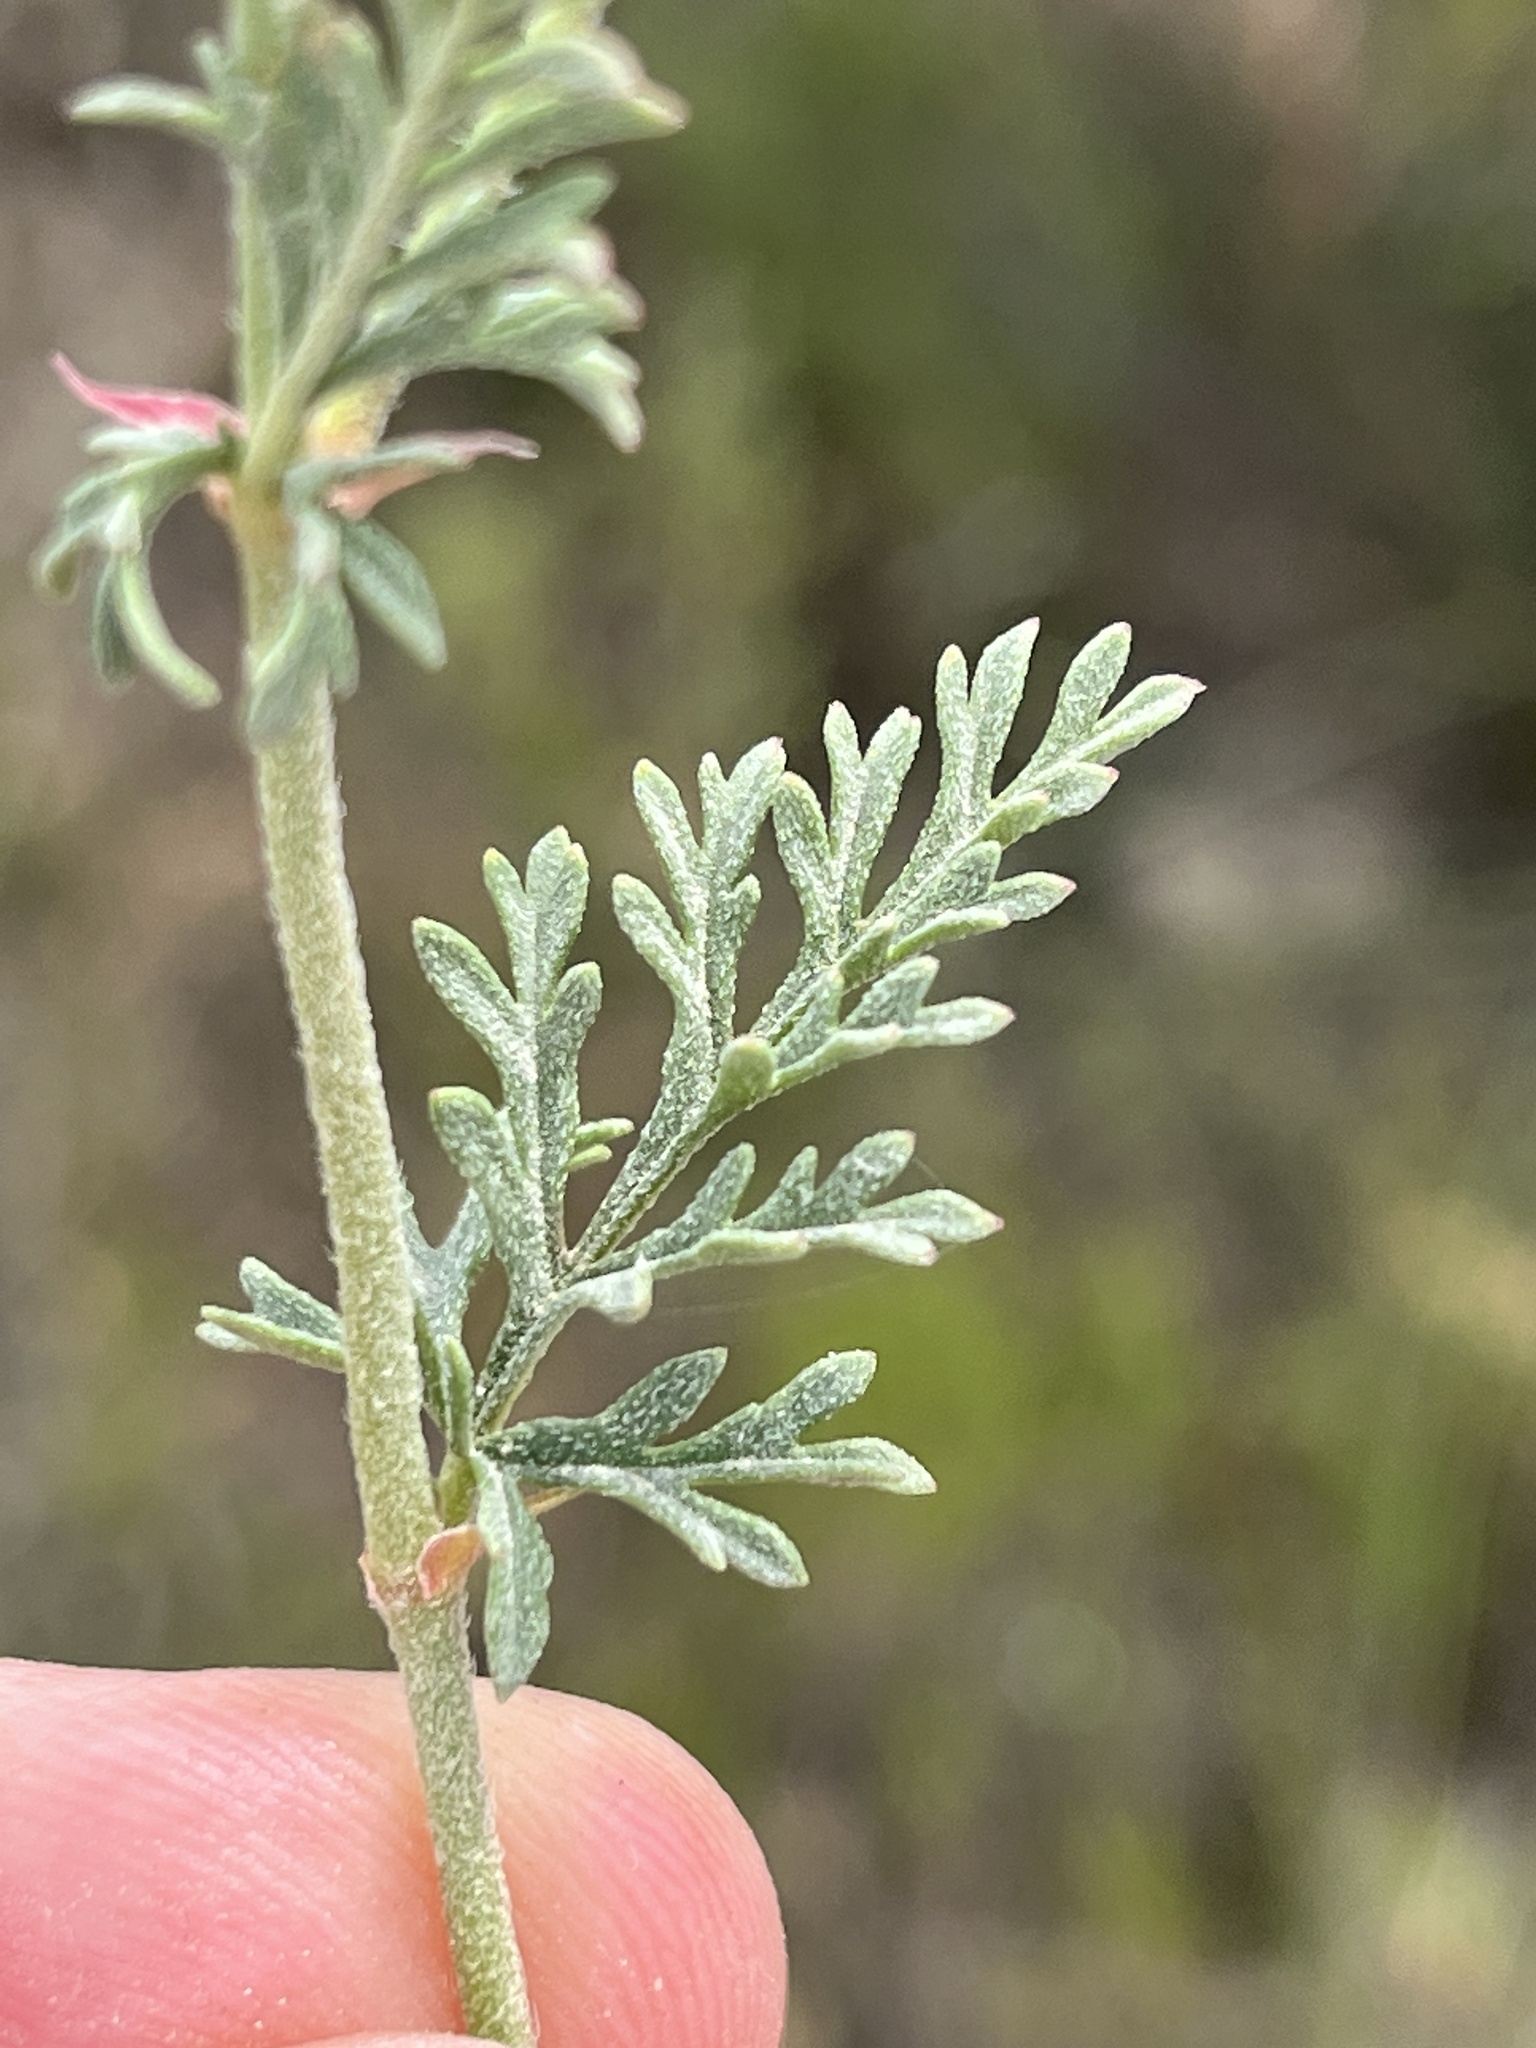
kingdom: Plantae
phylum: Tracheophyta
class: Magnoliopsida
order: Geraniales
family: Geraniaceae
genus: Pelargonium
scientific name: Pelargonium caucalifolium
